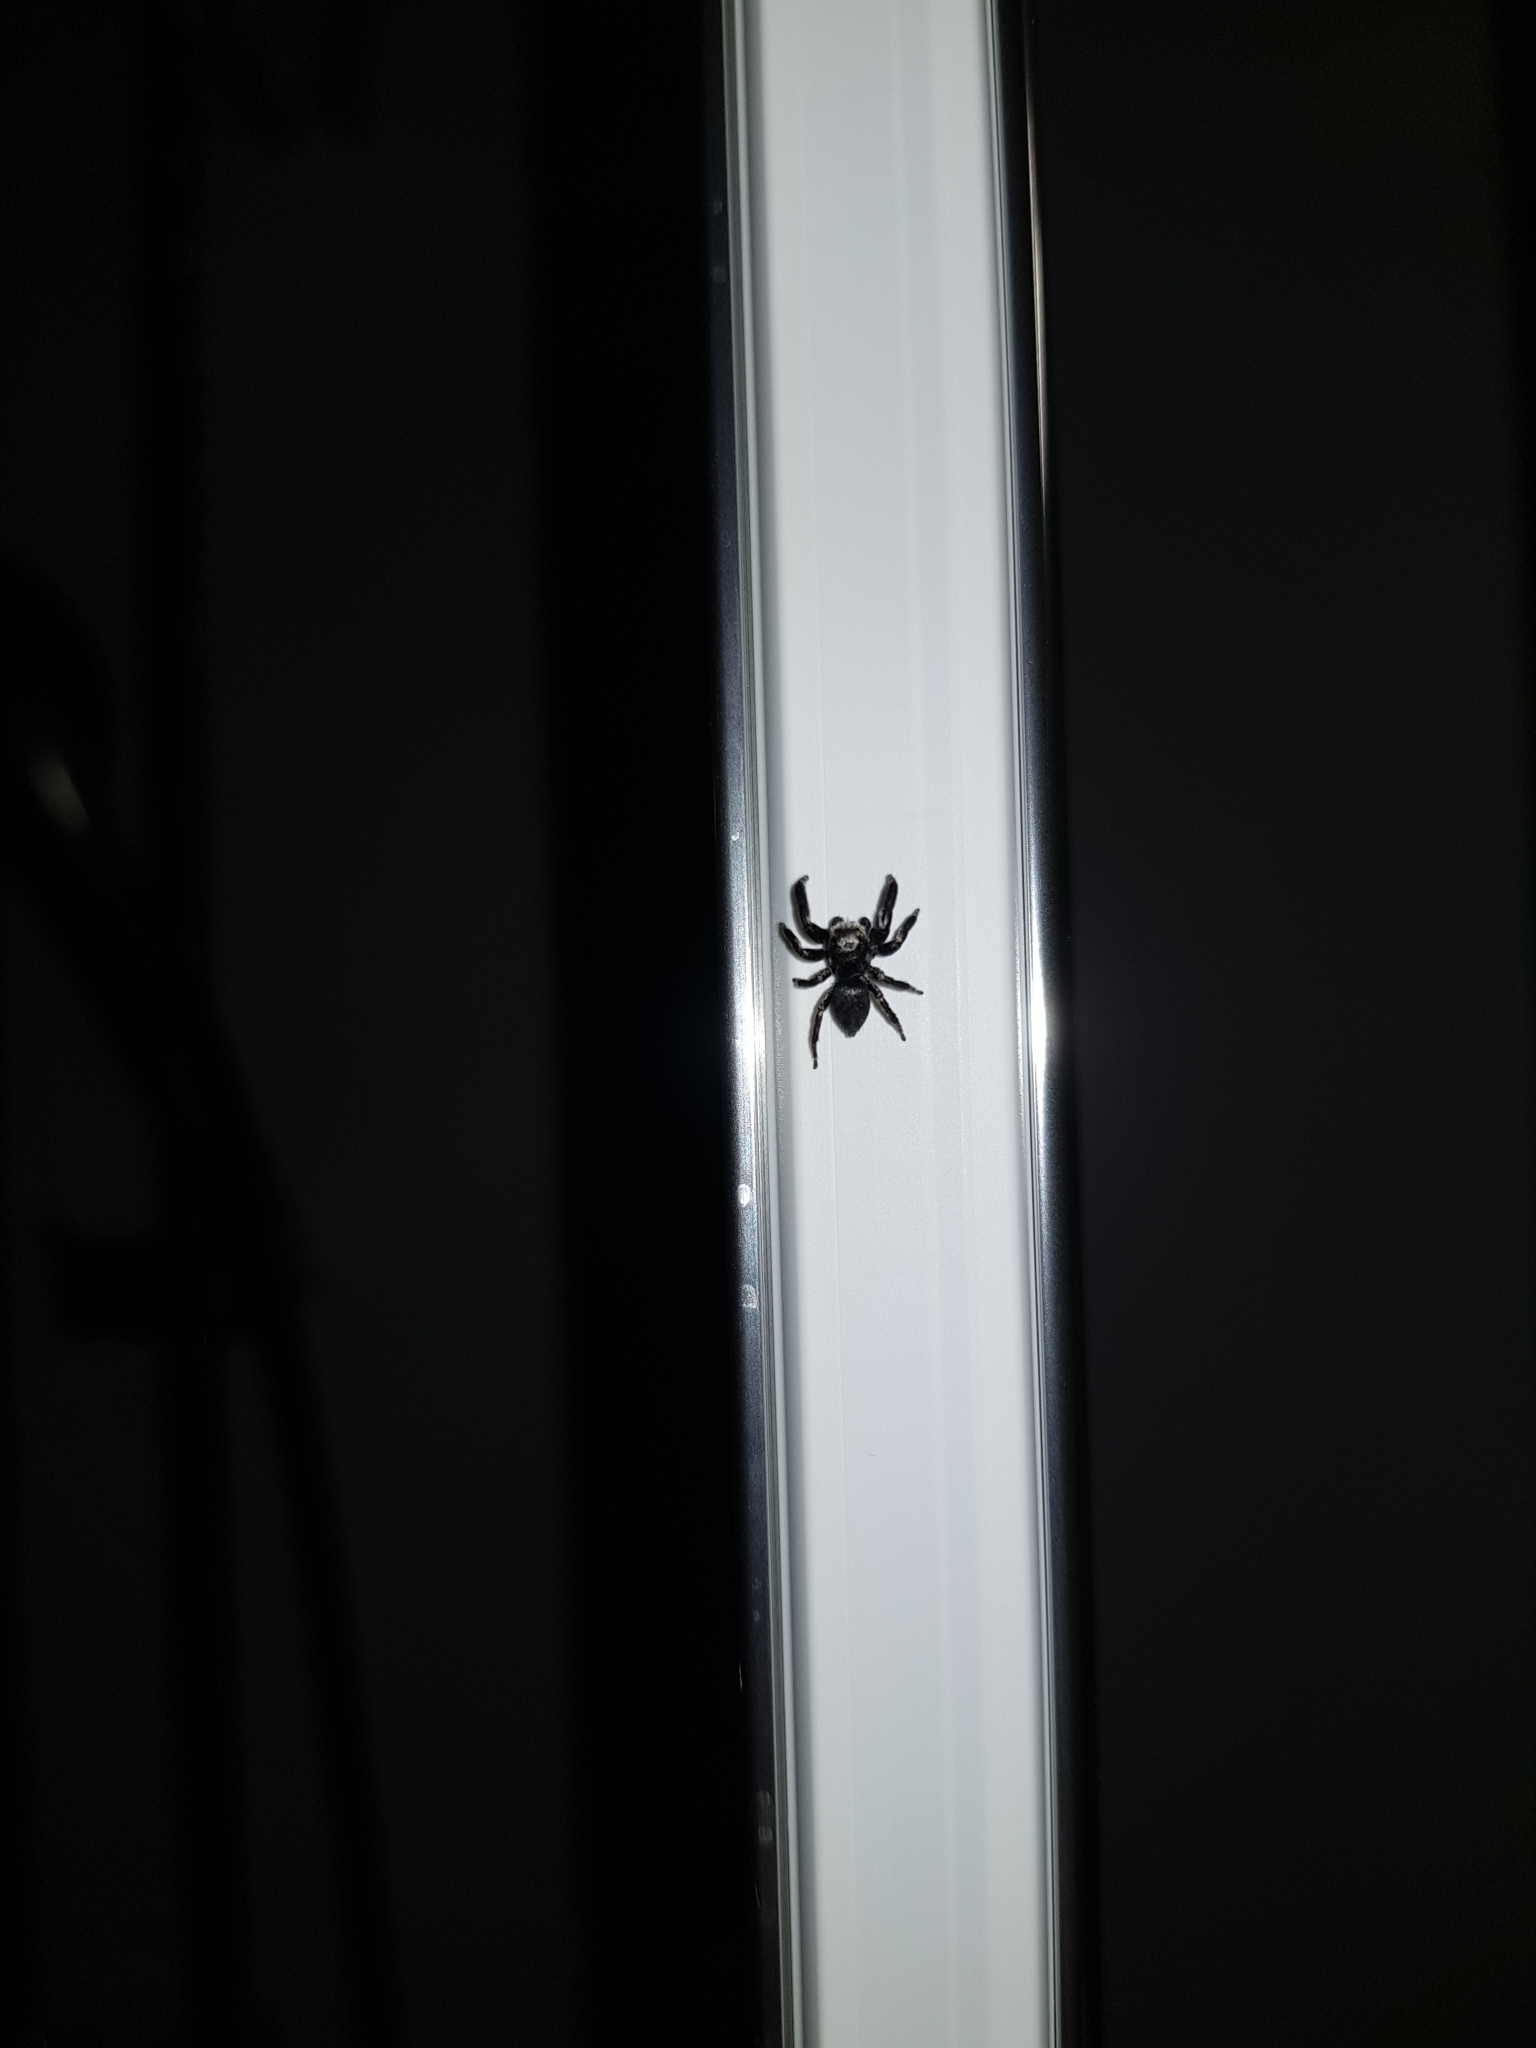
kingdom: Animalia
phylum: Arthropoda
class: Arachnida
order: Araneae
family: Salticidae
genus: Evarcha
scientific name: Evarcha arcuata
